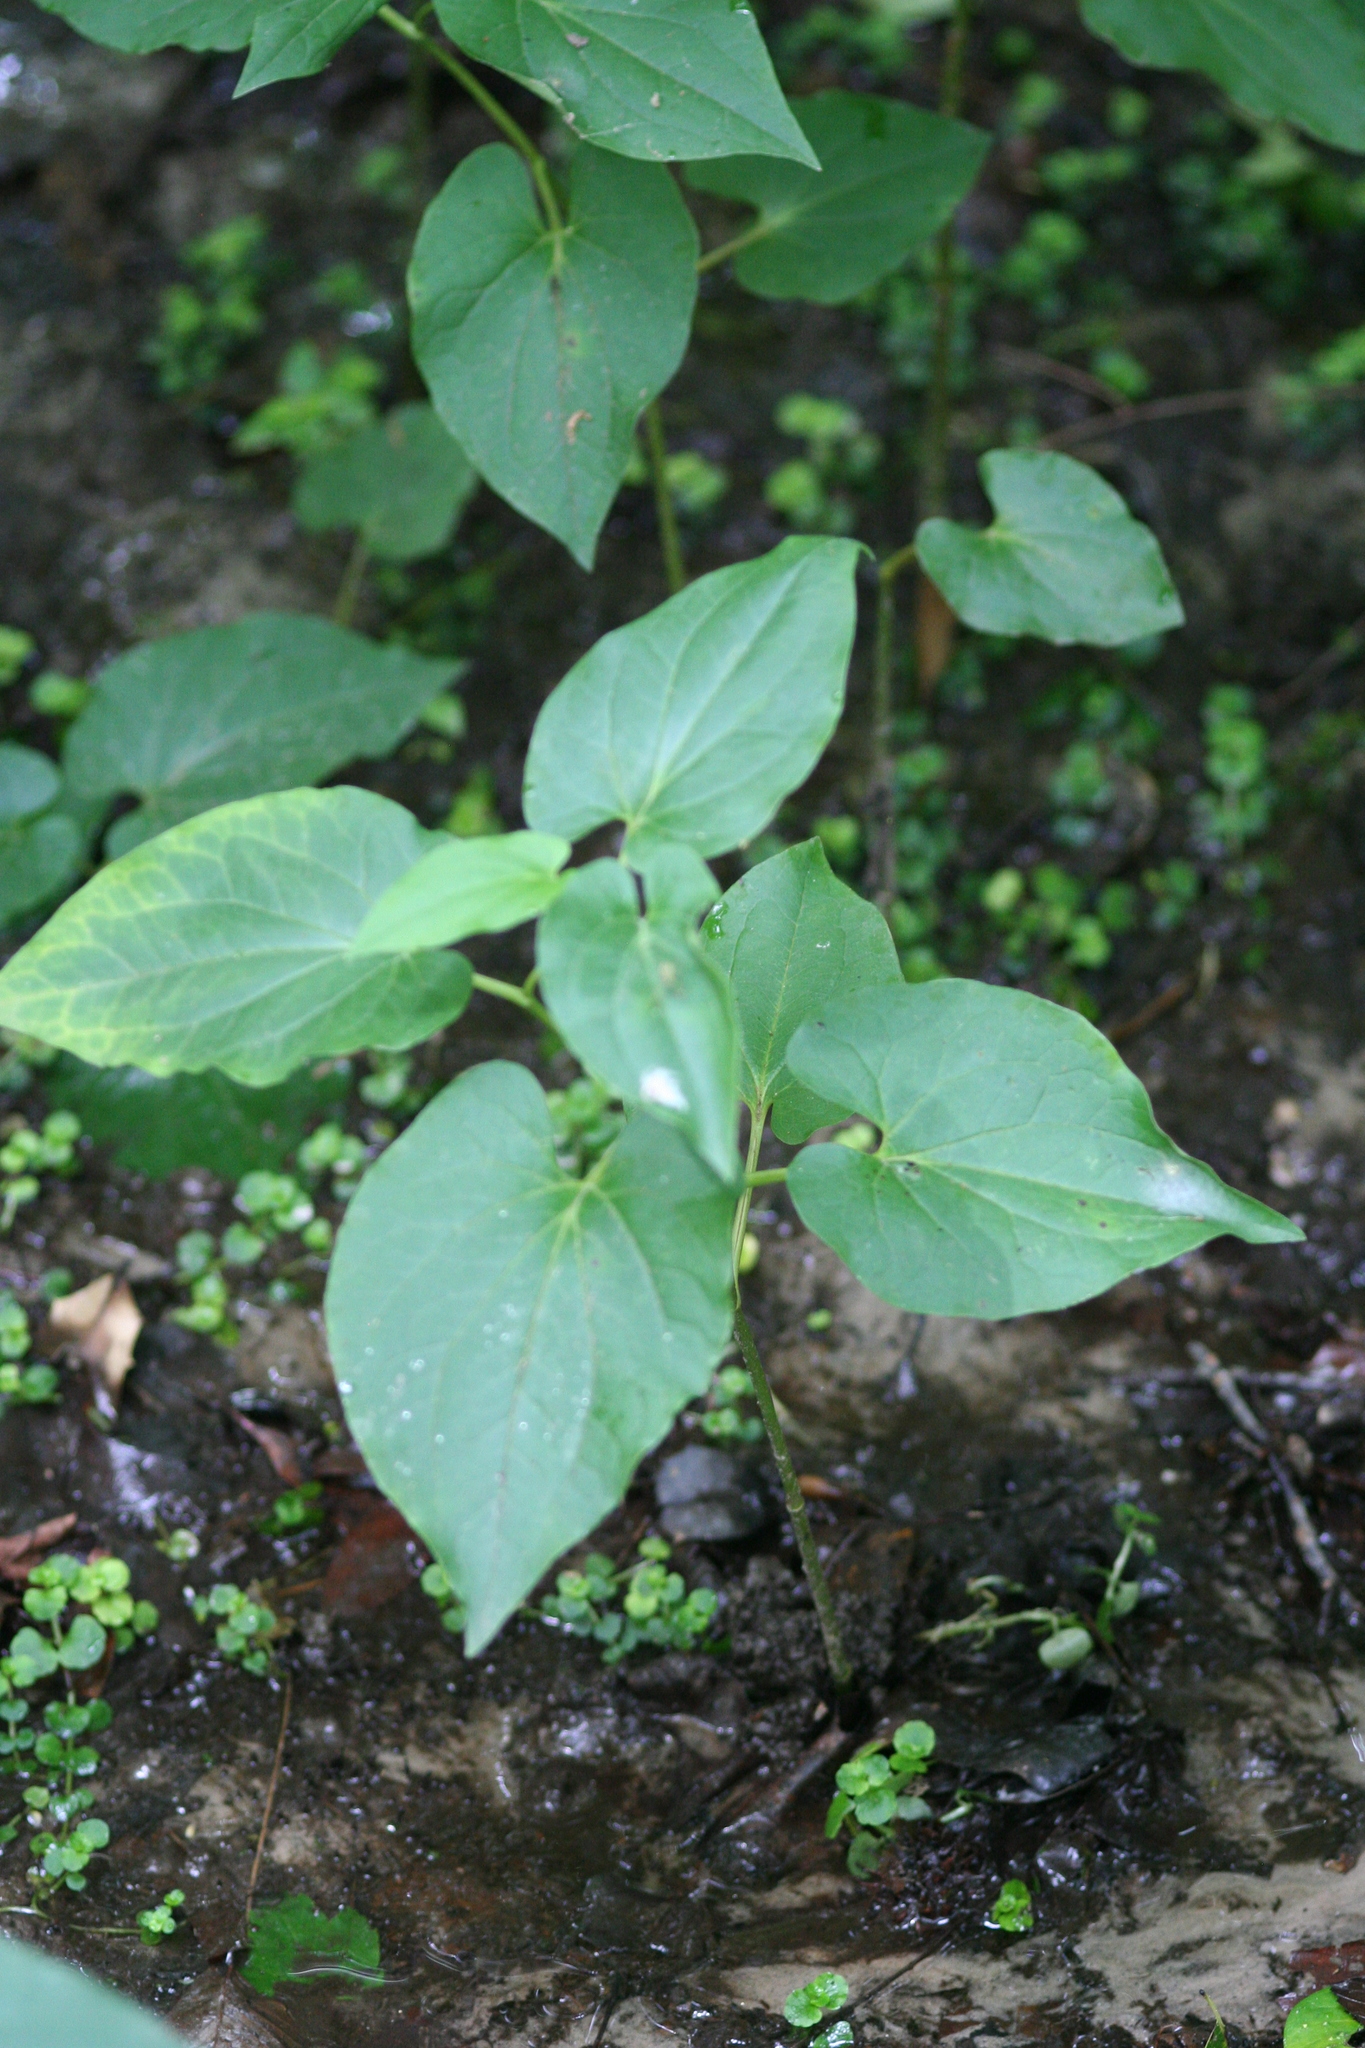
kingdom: Plantae
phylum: Tracheophyta
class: Magnoliopsida
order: Piperales
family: Saururaceae
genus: Saururus
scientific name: Saururus cernuus
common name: Lizard's-tail
